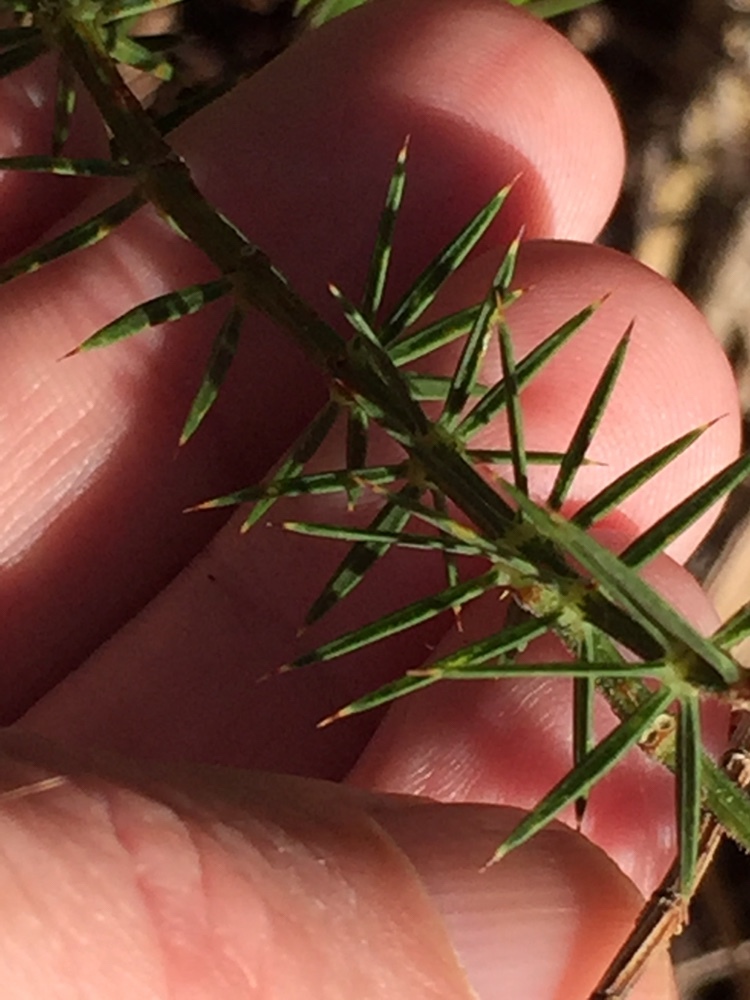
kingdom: Plantae
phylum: Tracheophyta
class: Magnoliopsida
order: Fabales
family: Fabaceae
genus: Acacia
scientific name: Acacia verticillata
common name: Prickly moses
